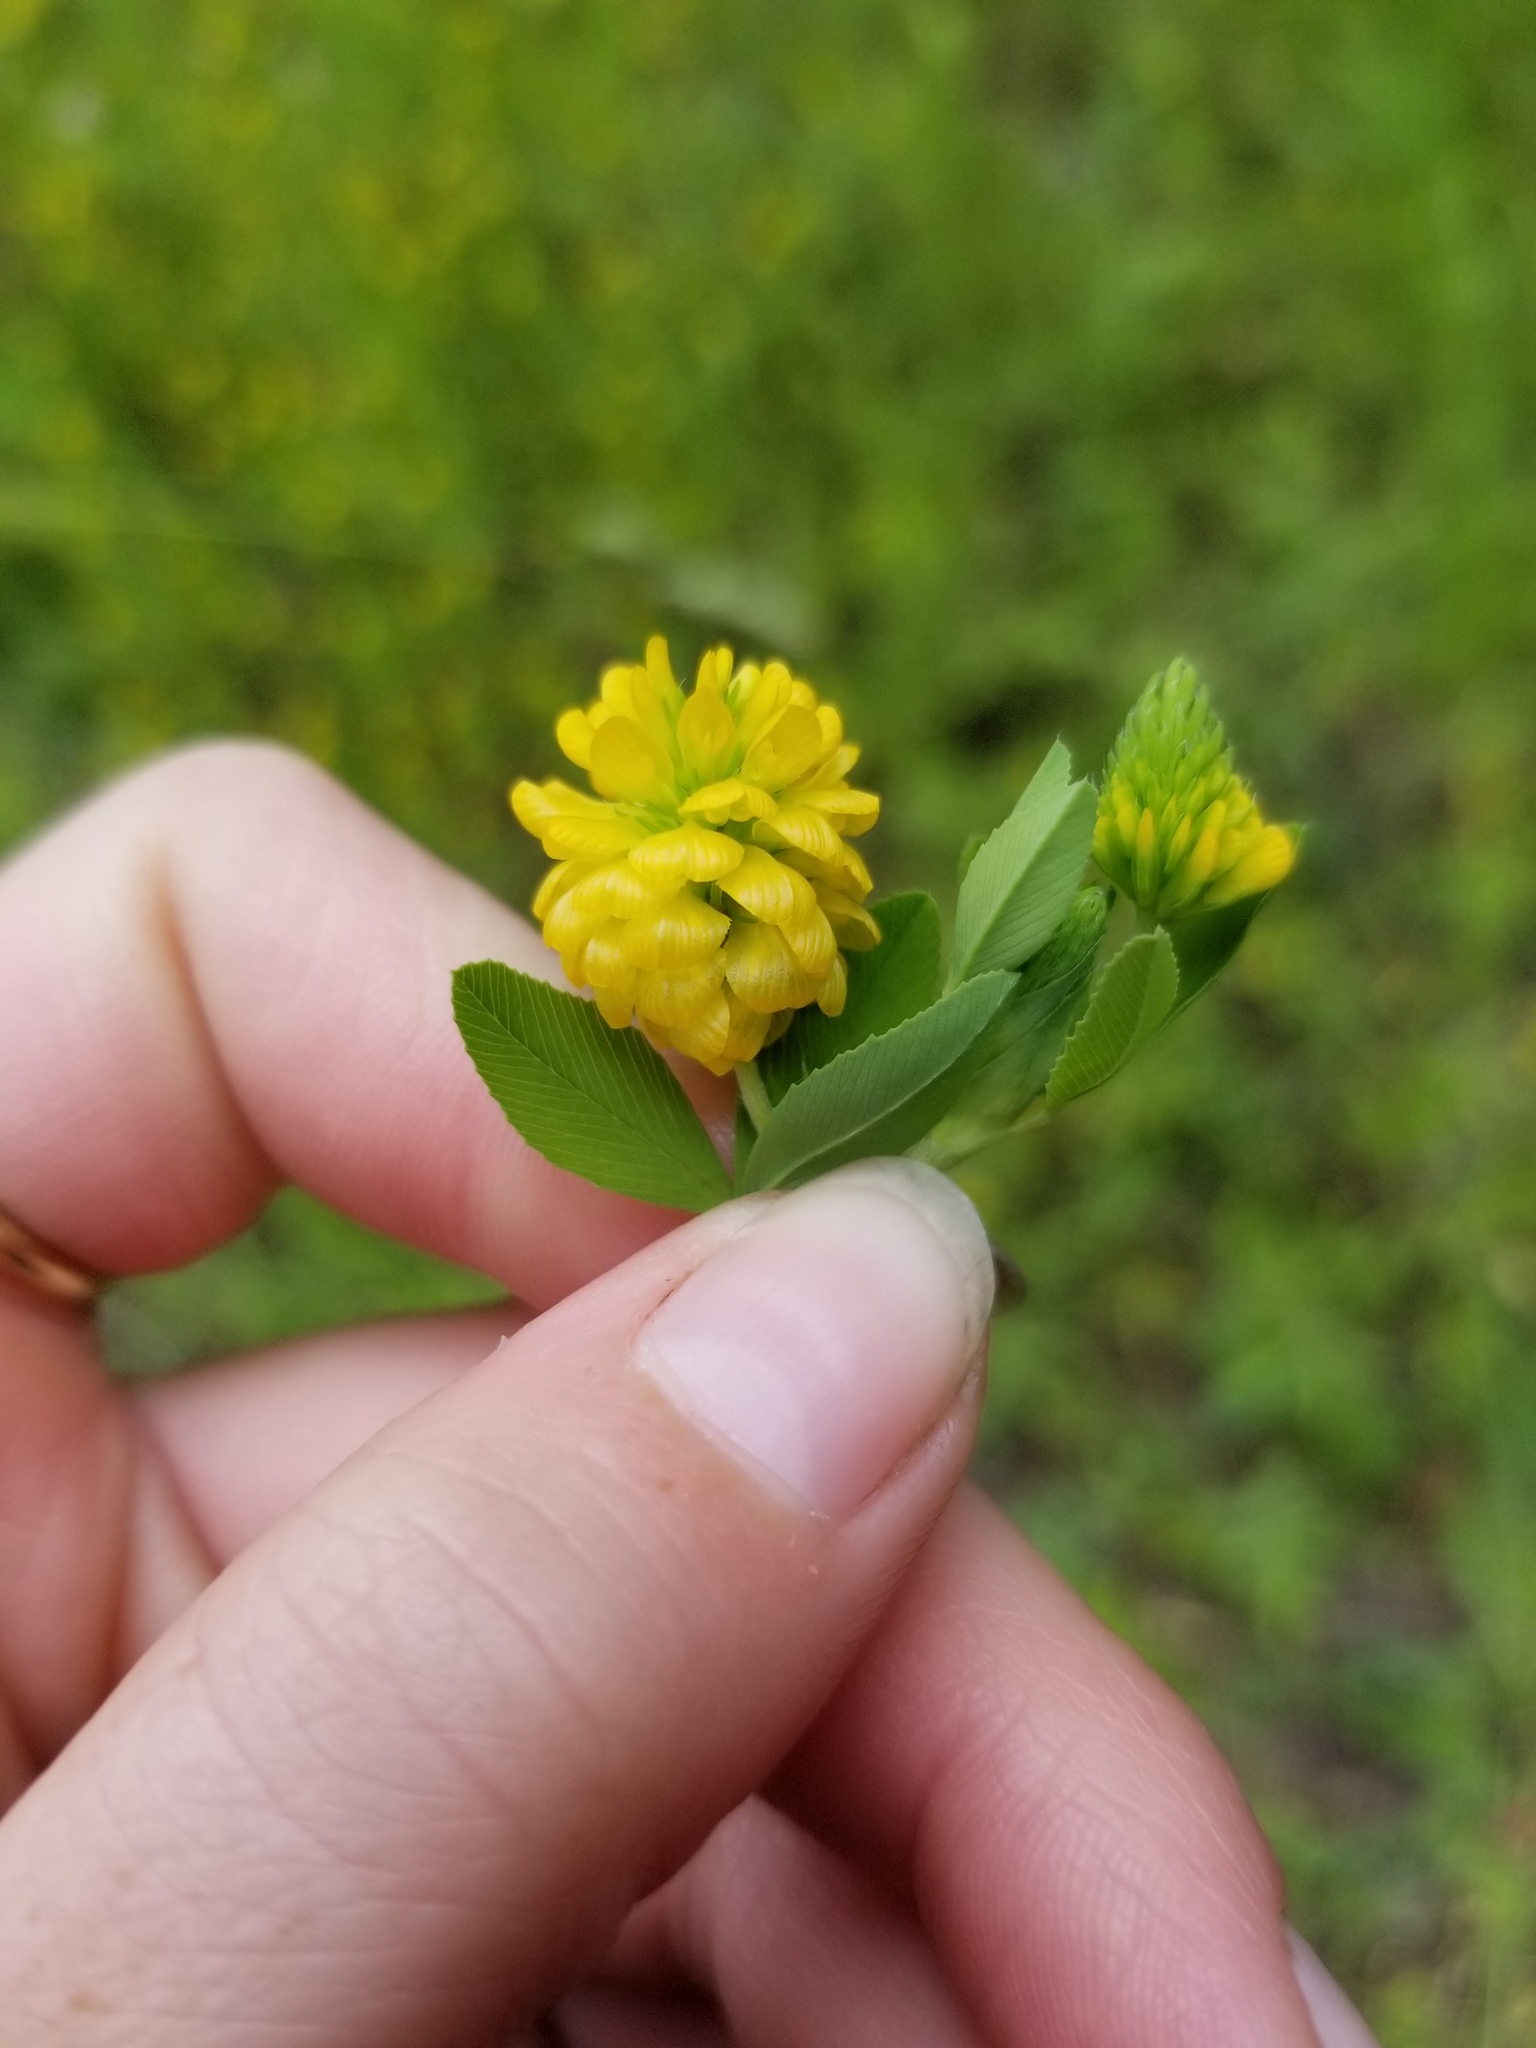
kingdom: Plantae
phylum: Tracheophyta
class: Magnoliopsida
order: Fabales
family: Fabaceae
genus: Trifolium
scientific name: Trifolium aureum
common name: Golden clover
